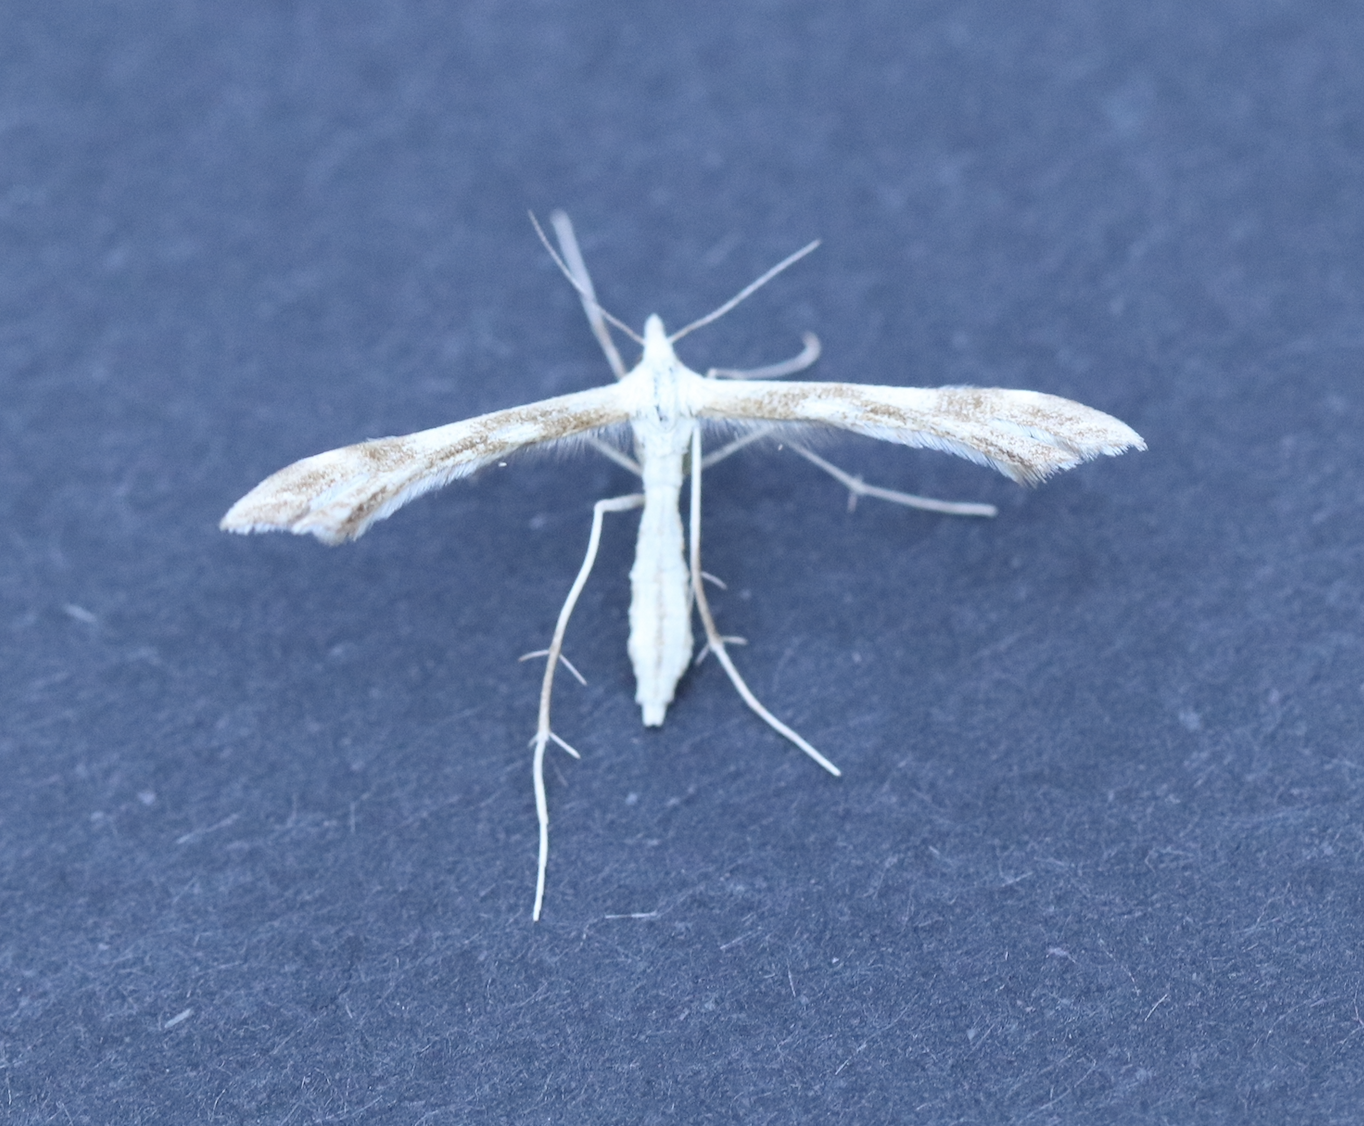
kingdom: Animalia
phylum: Arthropoda
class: Insecta
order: Lepidoptera
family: Pterophoridae
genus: Gillmeria
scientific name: Gillmeria pallidactyla
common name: Yarrow plume
